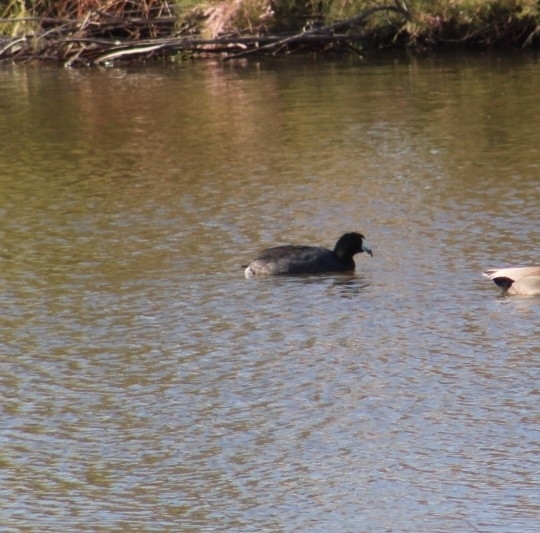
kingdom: Animalia
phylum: Chordata
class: Aves
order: Gruiformes
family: Rallidae
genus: Fulica
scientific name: Fulica americana
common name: American coot
